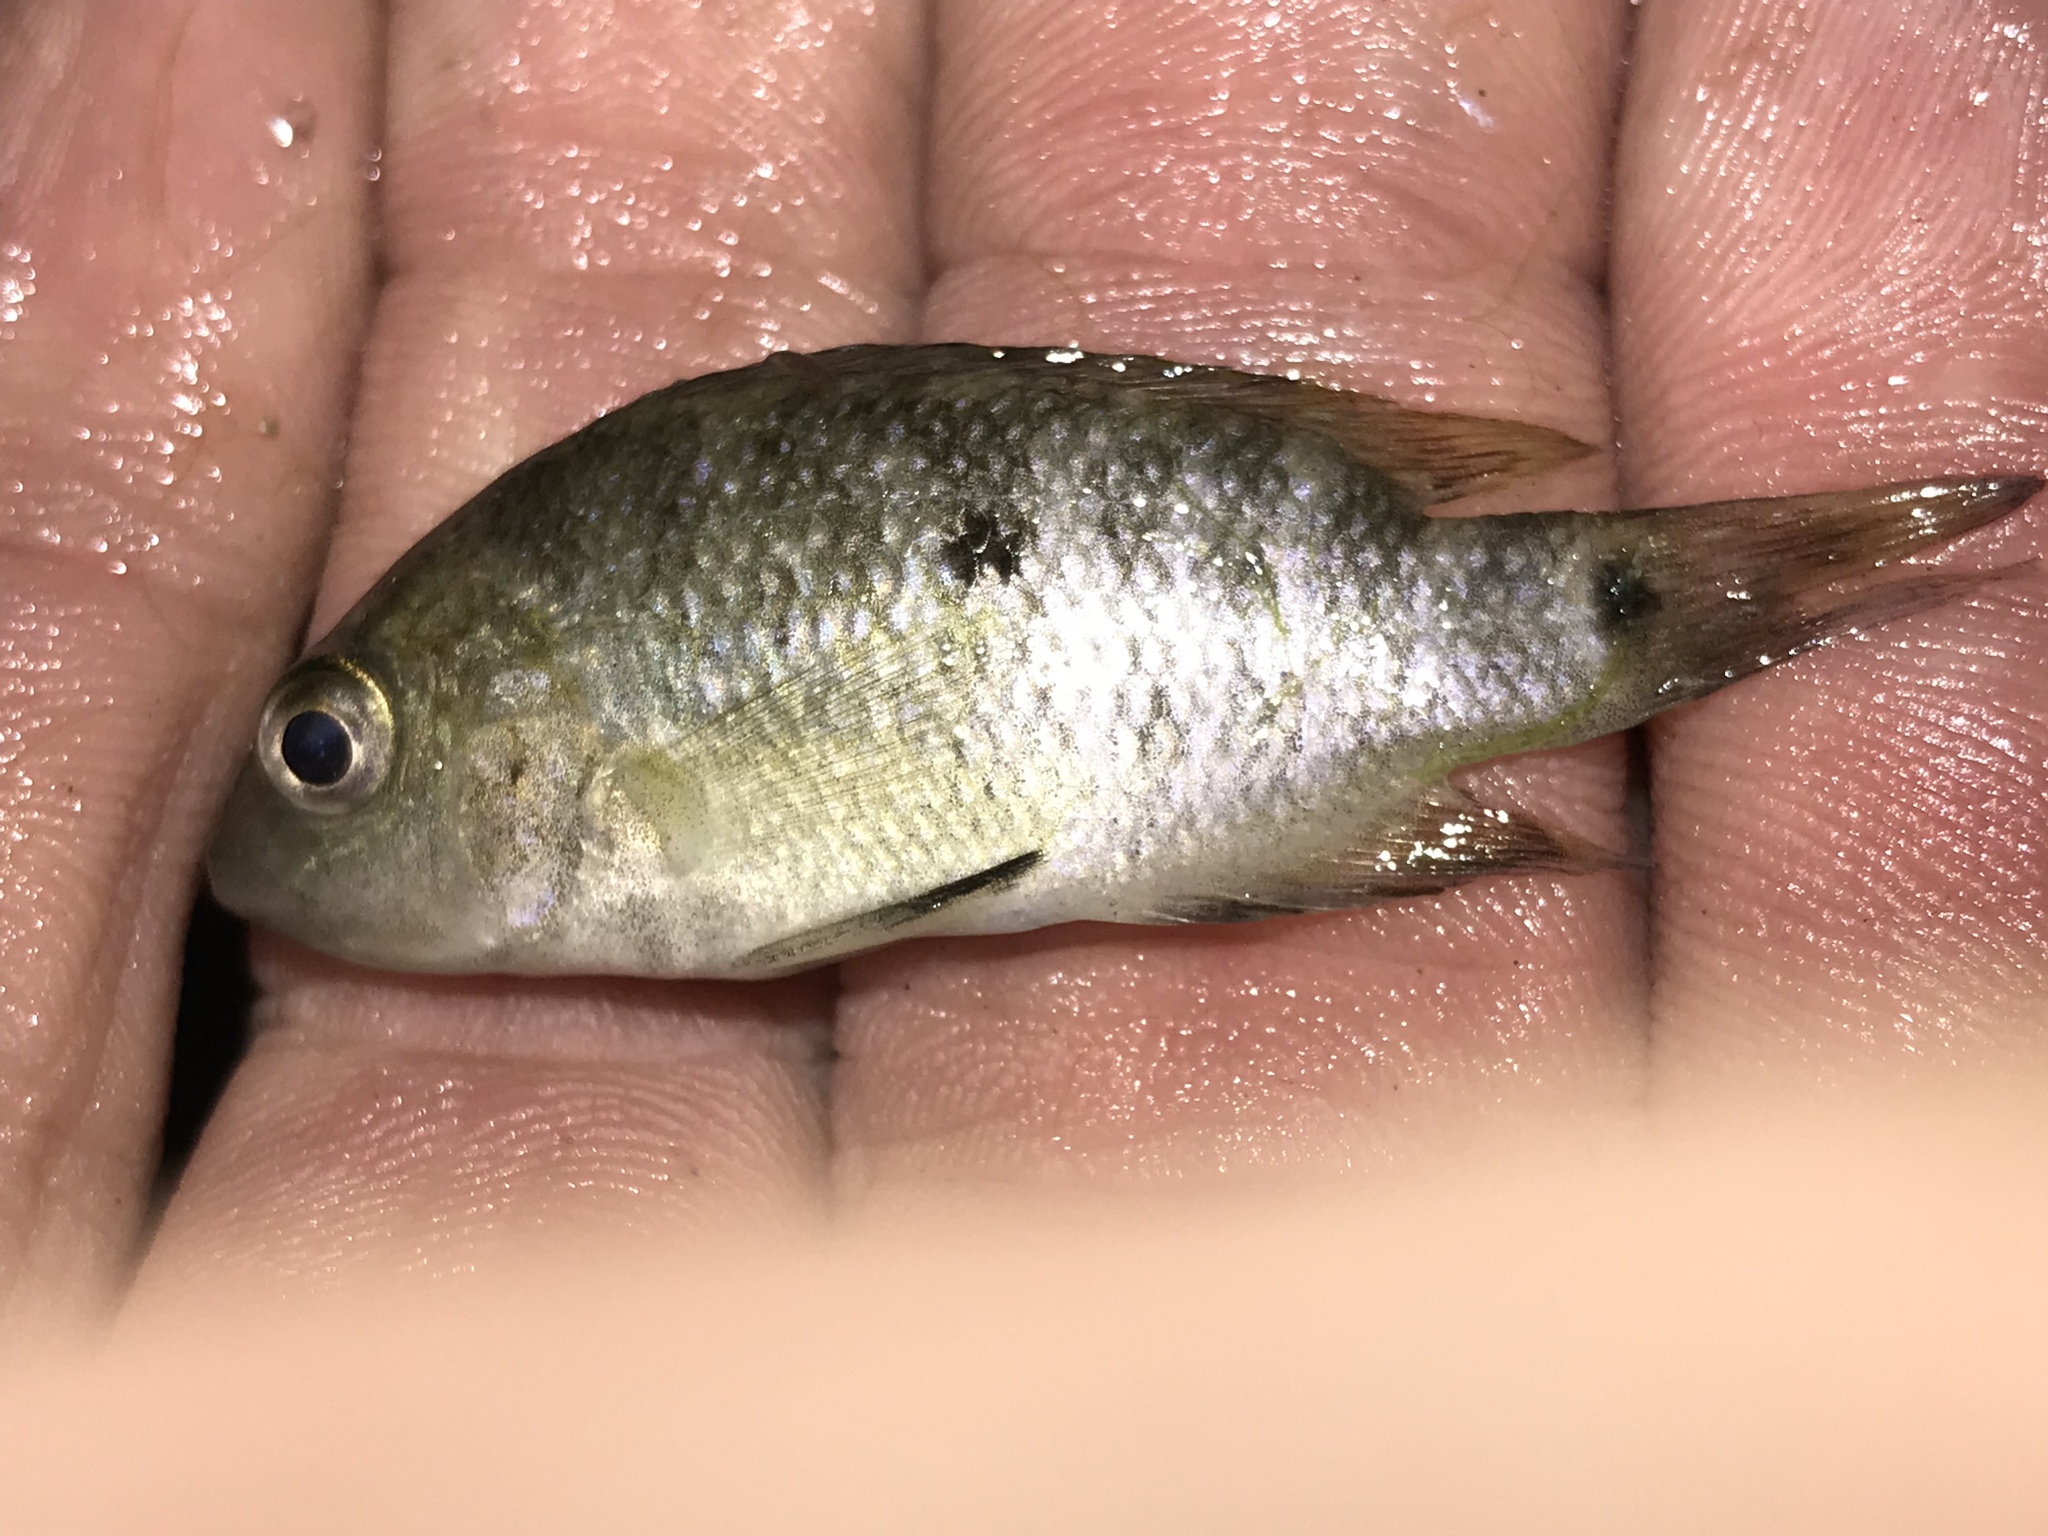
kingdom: Animalia
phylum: Chordata
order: Perciformes
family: Cichlidae
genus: Herichthys
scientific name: Herichthys cyanoguttatus
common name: Rio grande cichlid
